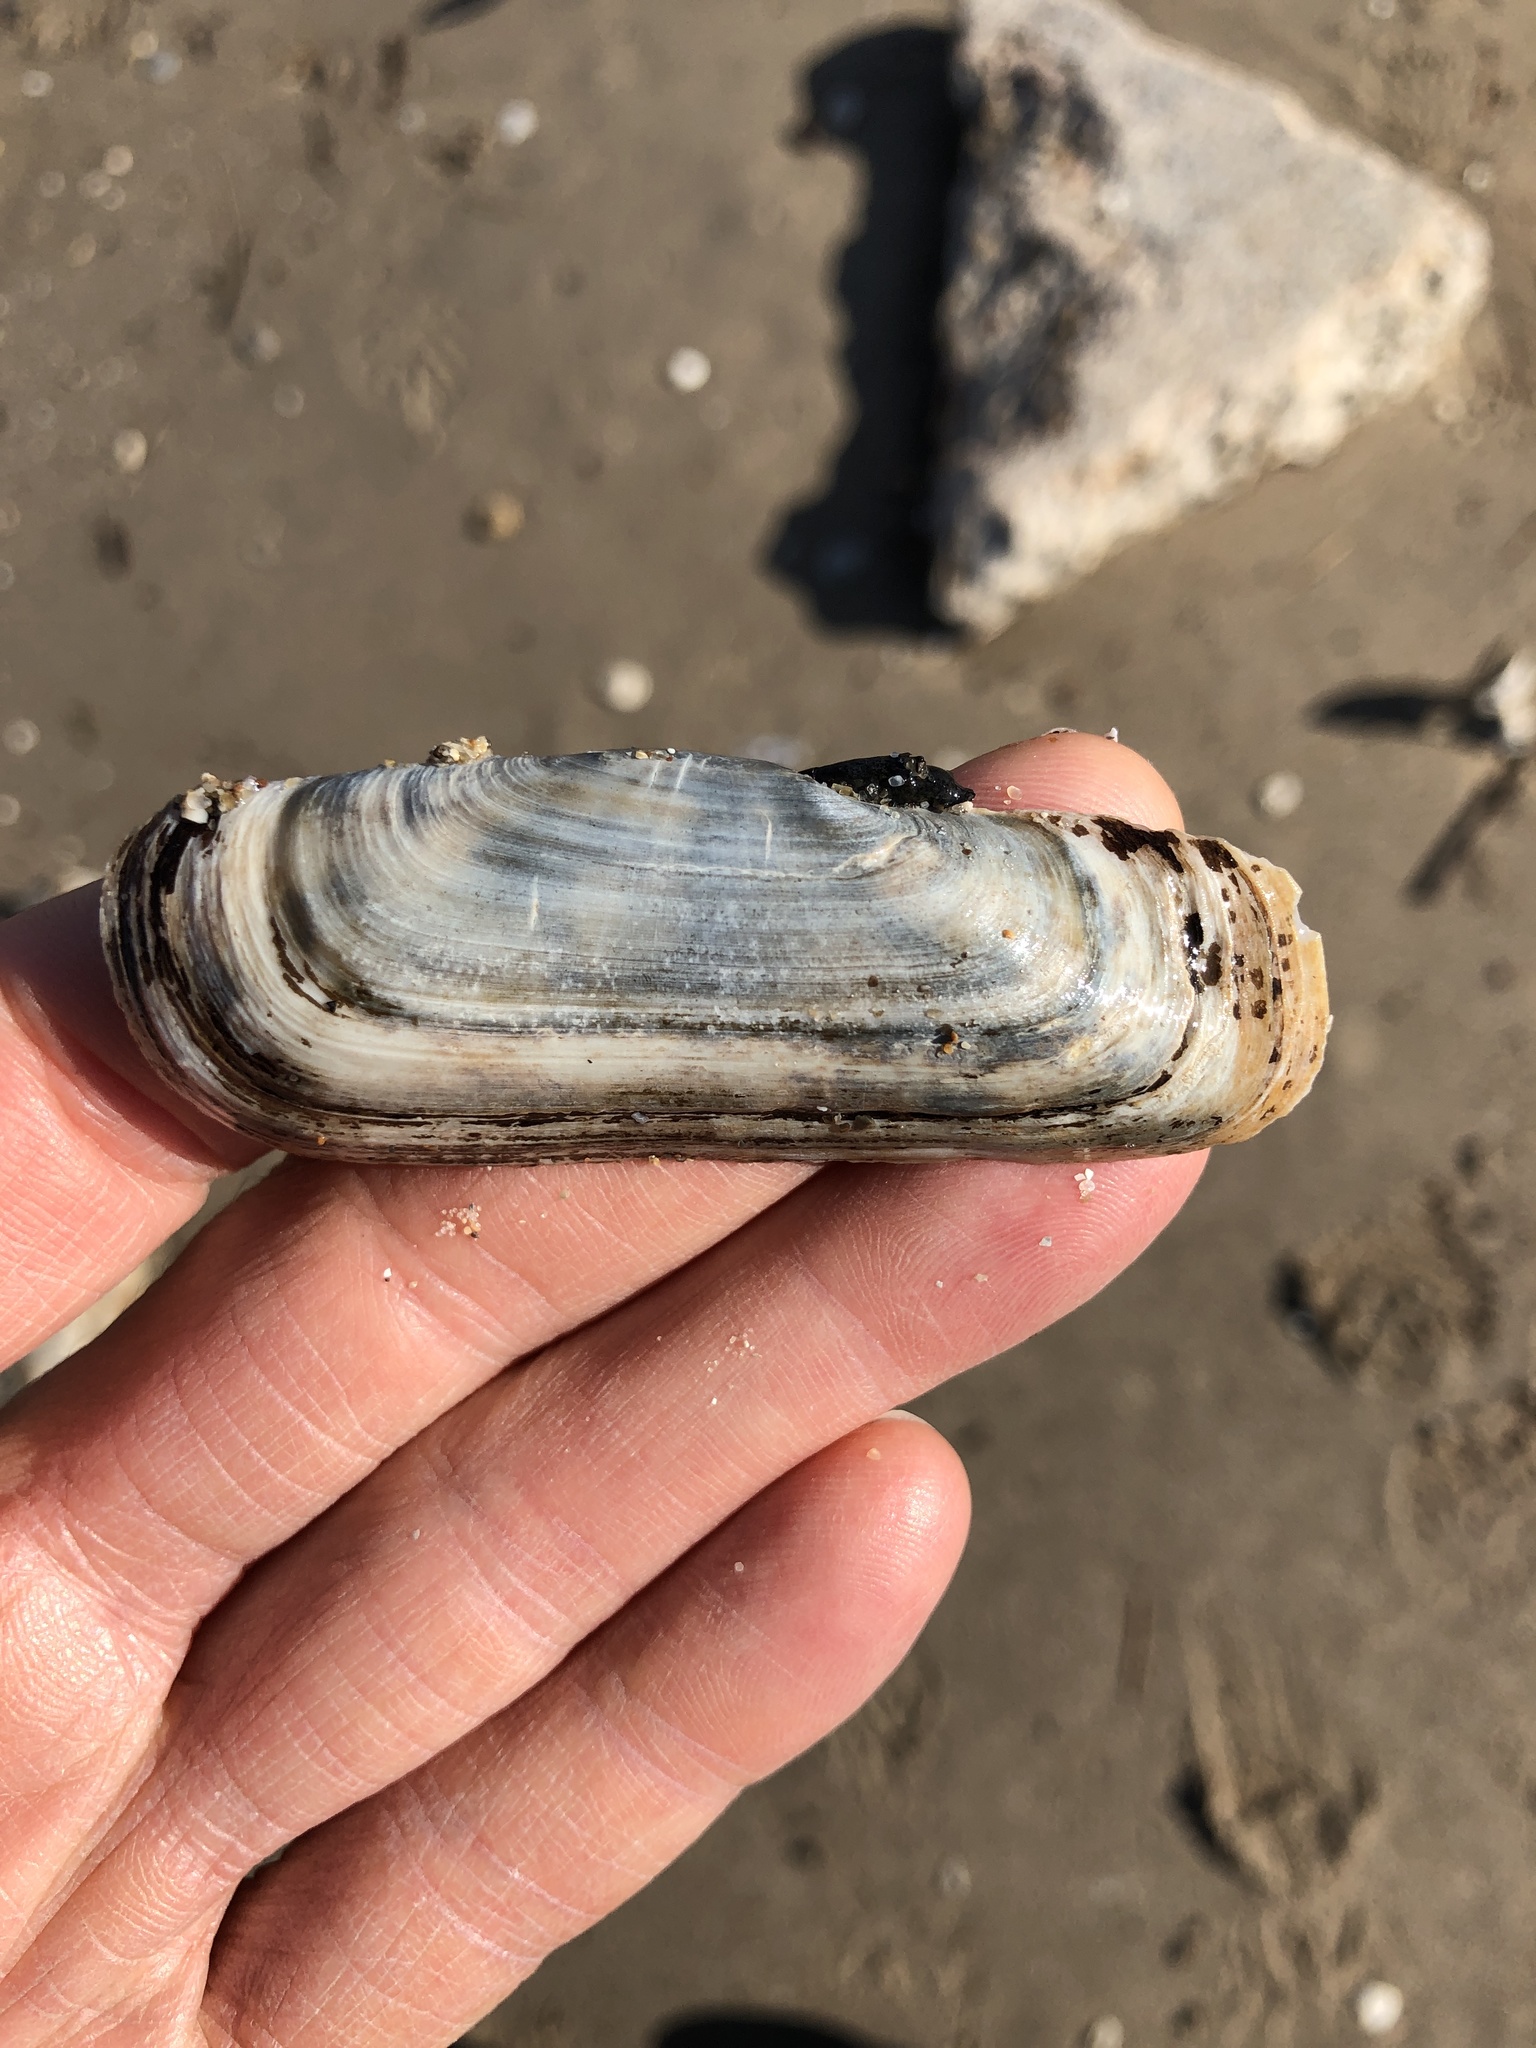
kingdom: Animalia
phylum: Mollusca
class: Bivalvia
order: Cardiida
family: Solecurtidae
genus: Tagelus
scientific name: Tagelus plebeius
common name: Stout tagelus
